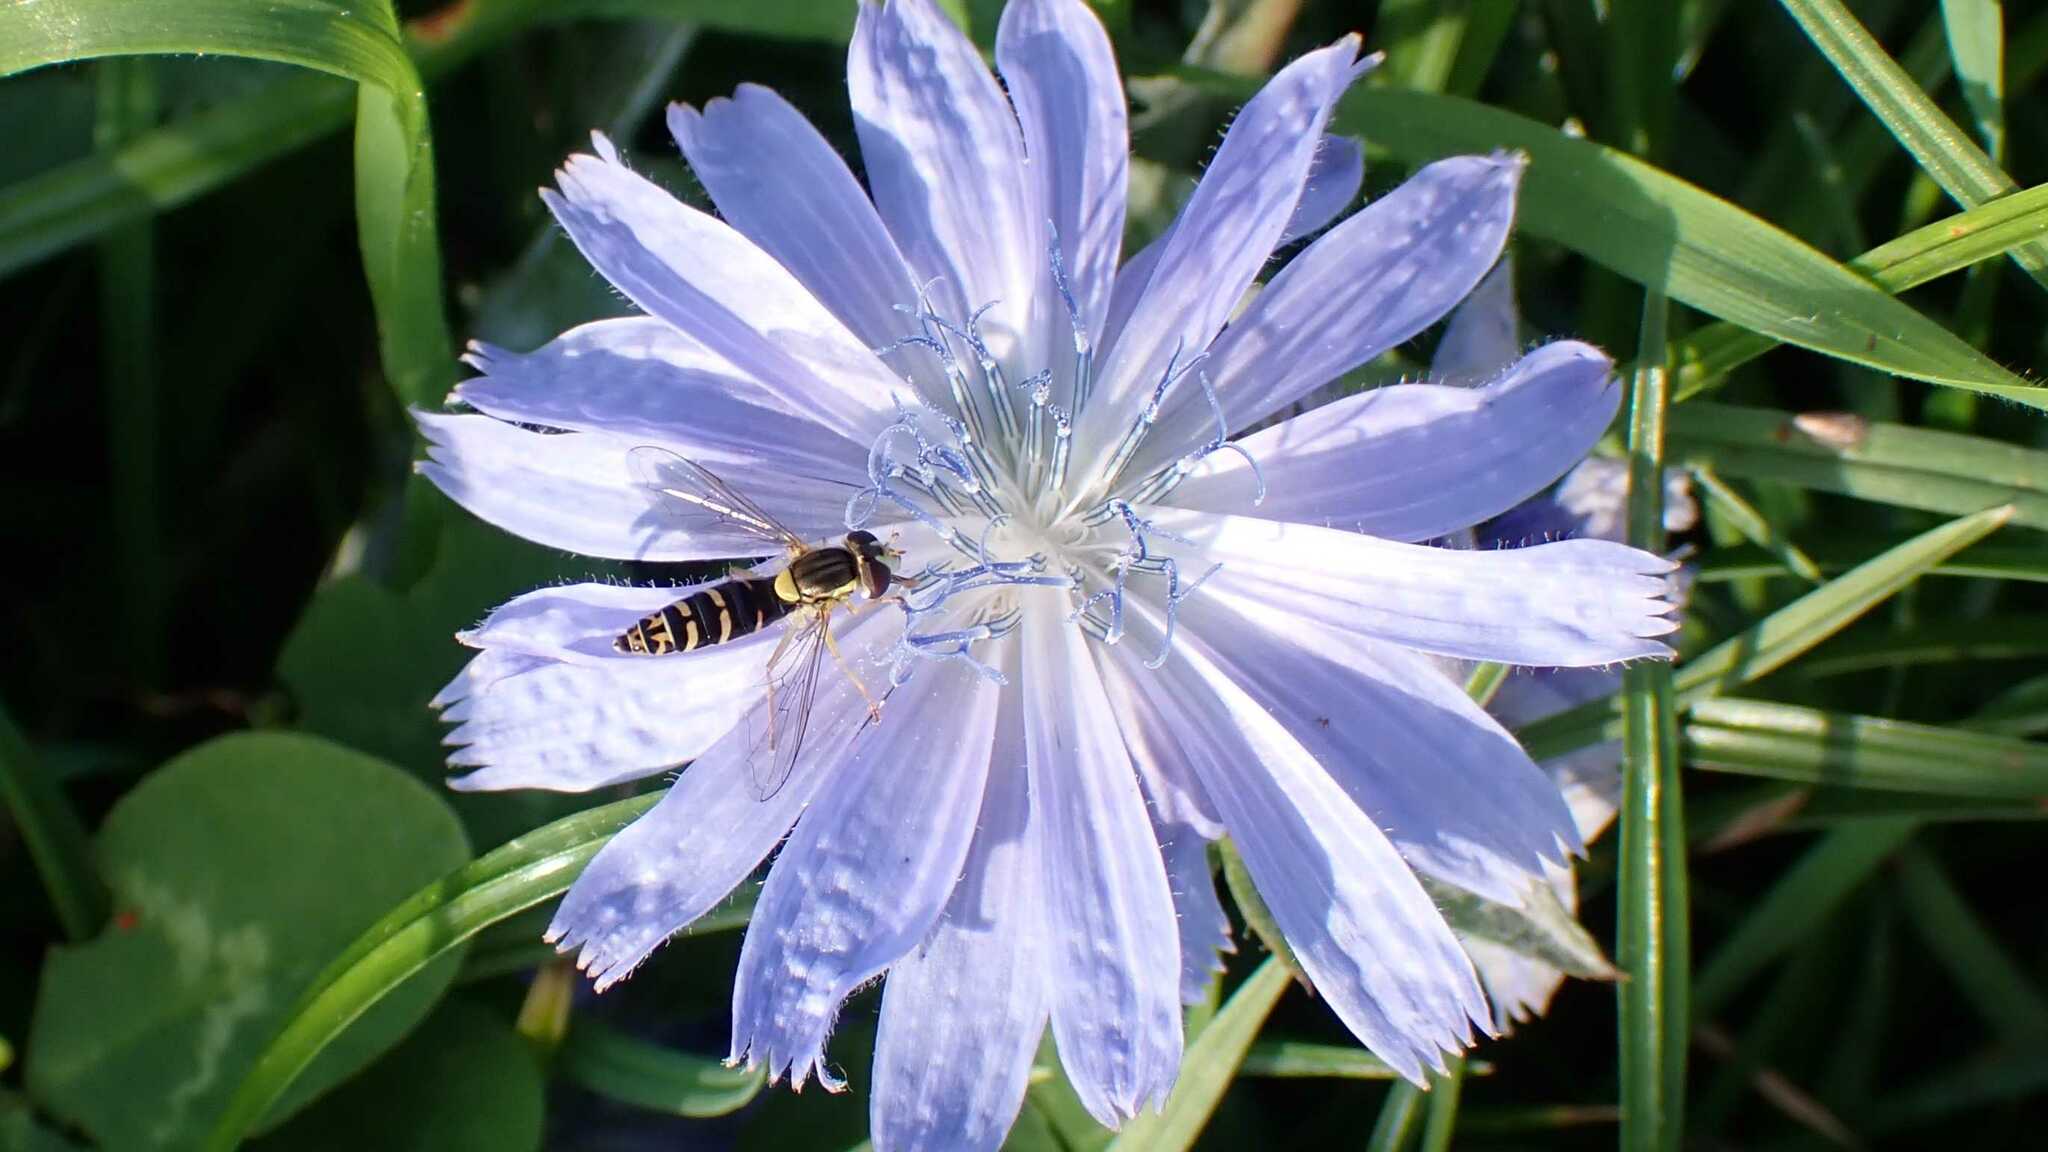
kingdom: Animalia
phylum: Arthropoda
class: Insecta
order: Diptera
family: Syrphidae
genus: Sphaerophoria
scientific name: Sphaerophoria
